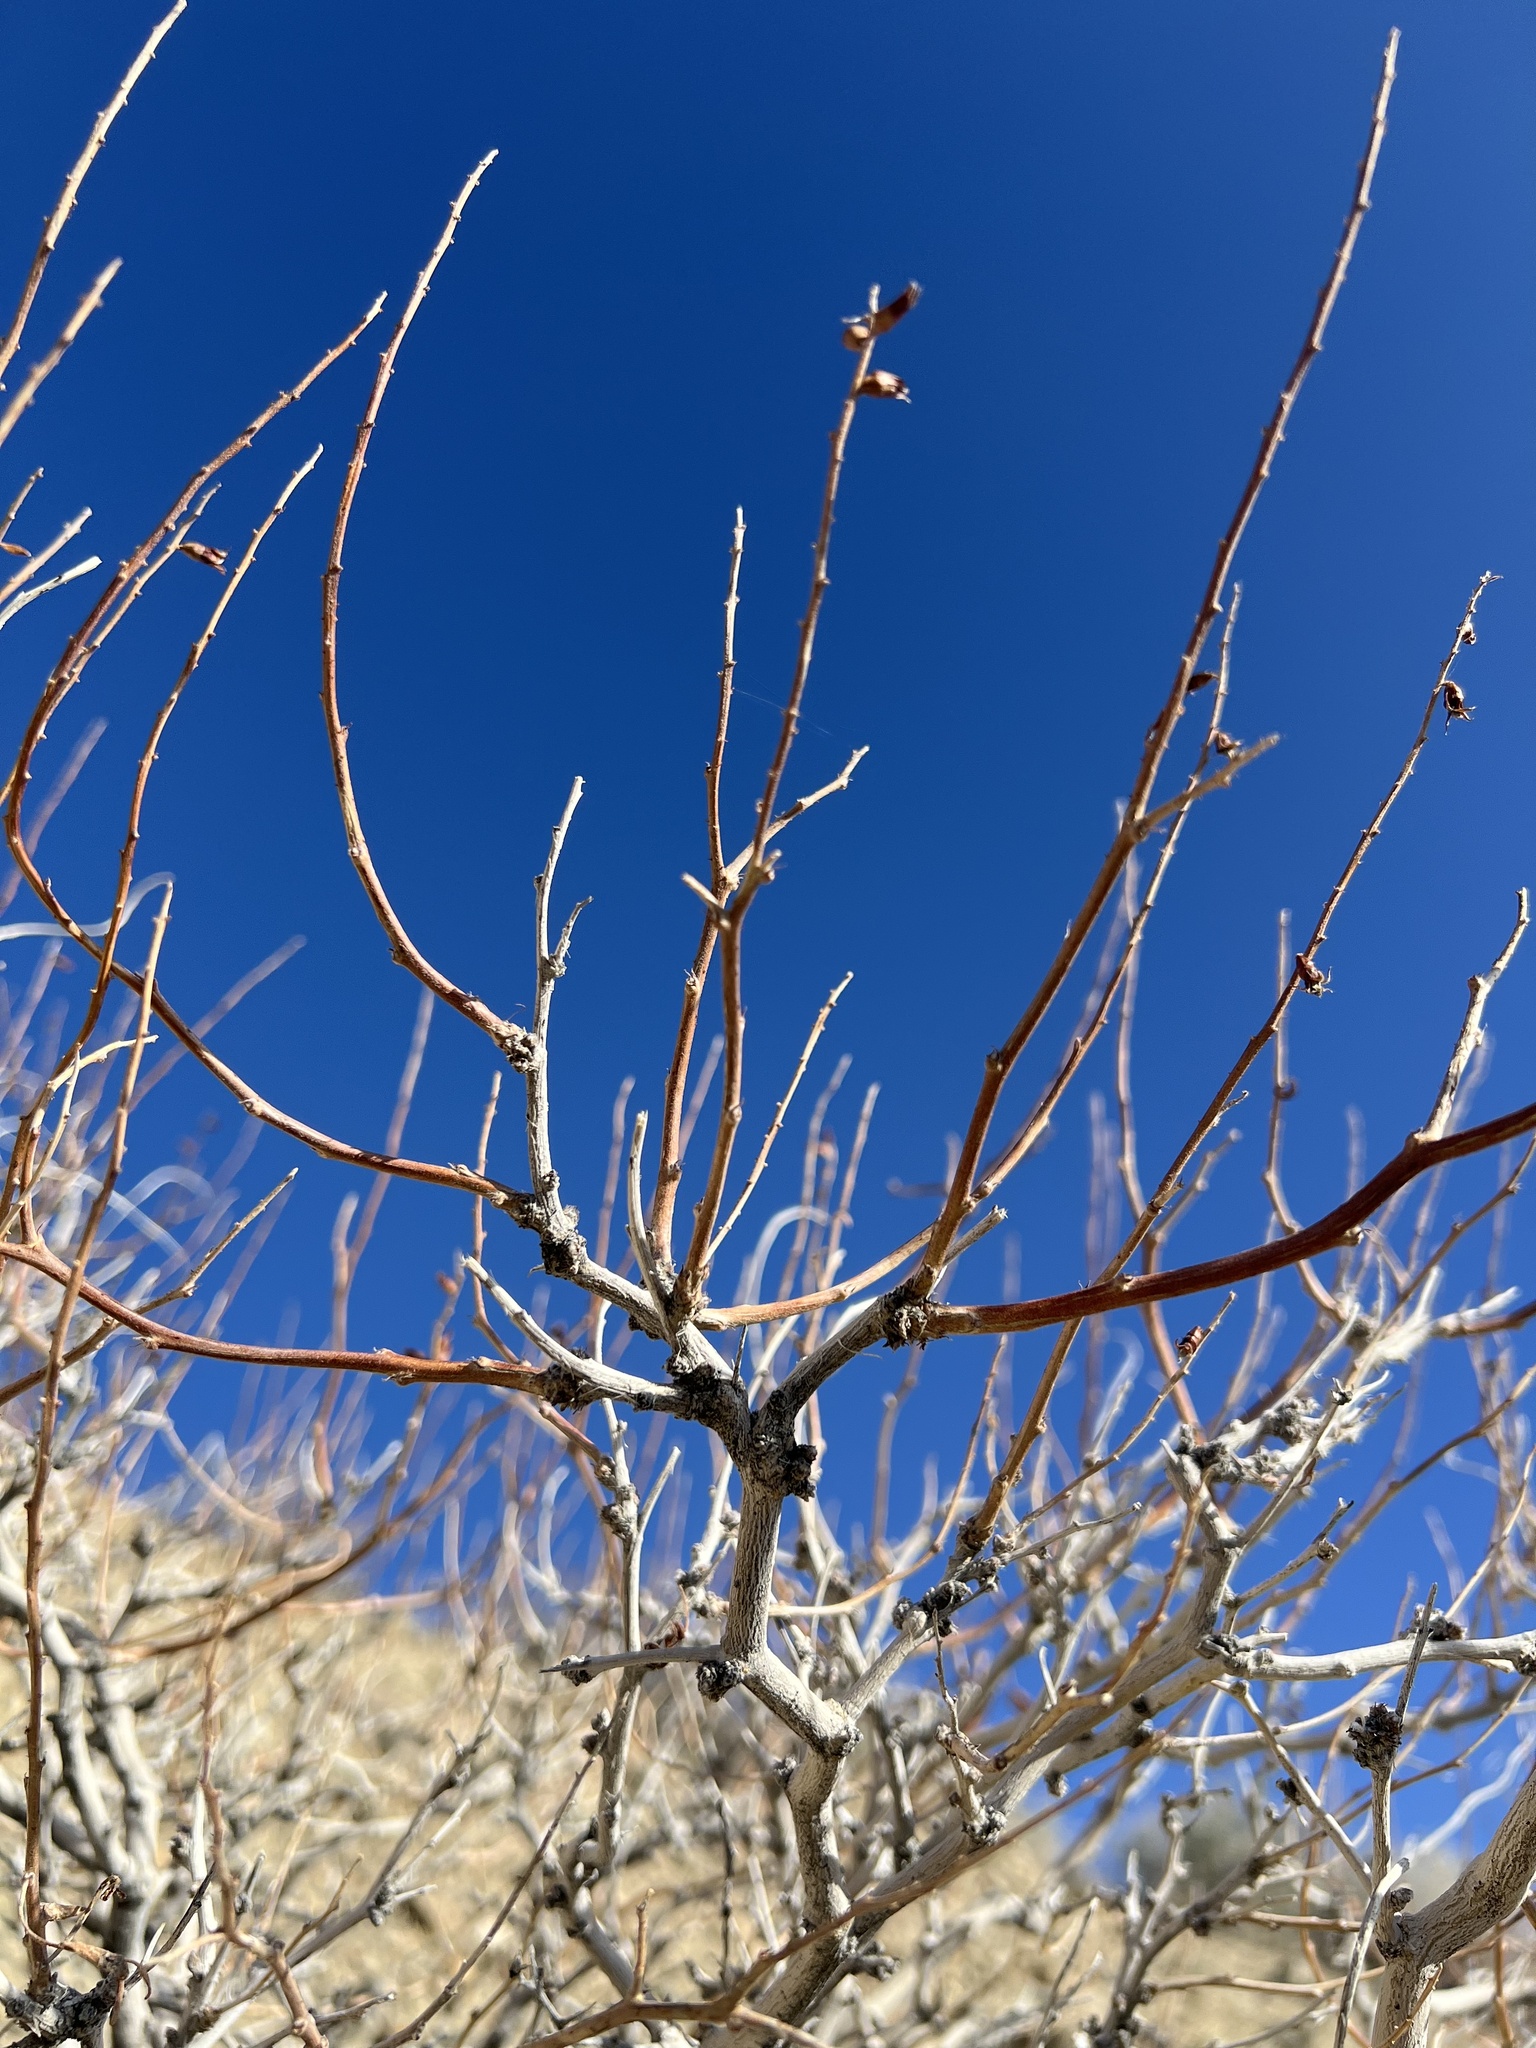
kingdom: Plantae
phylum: Tracheophyta
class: Magnoliopsida
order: Fabales
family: Fabaceae
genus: Psorothamnus
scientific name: Psorothamnus arborescens
